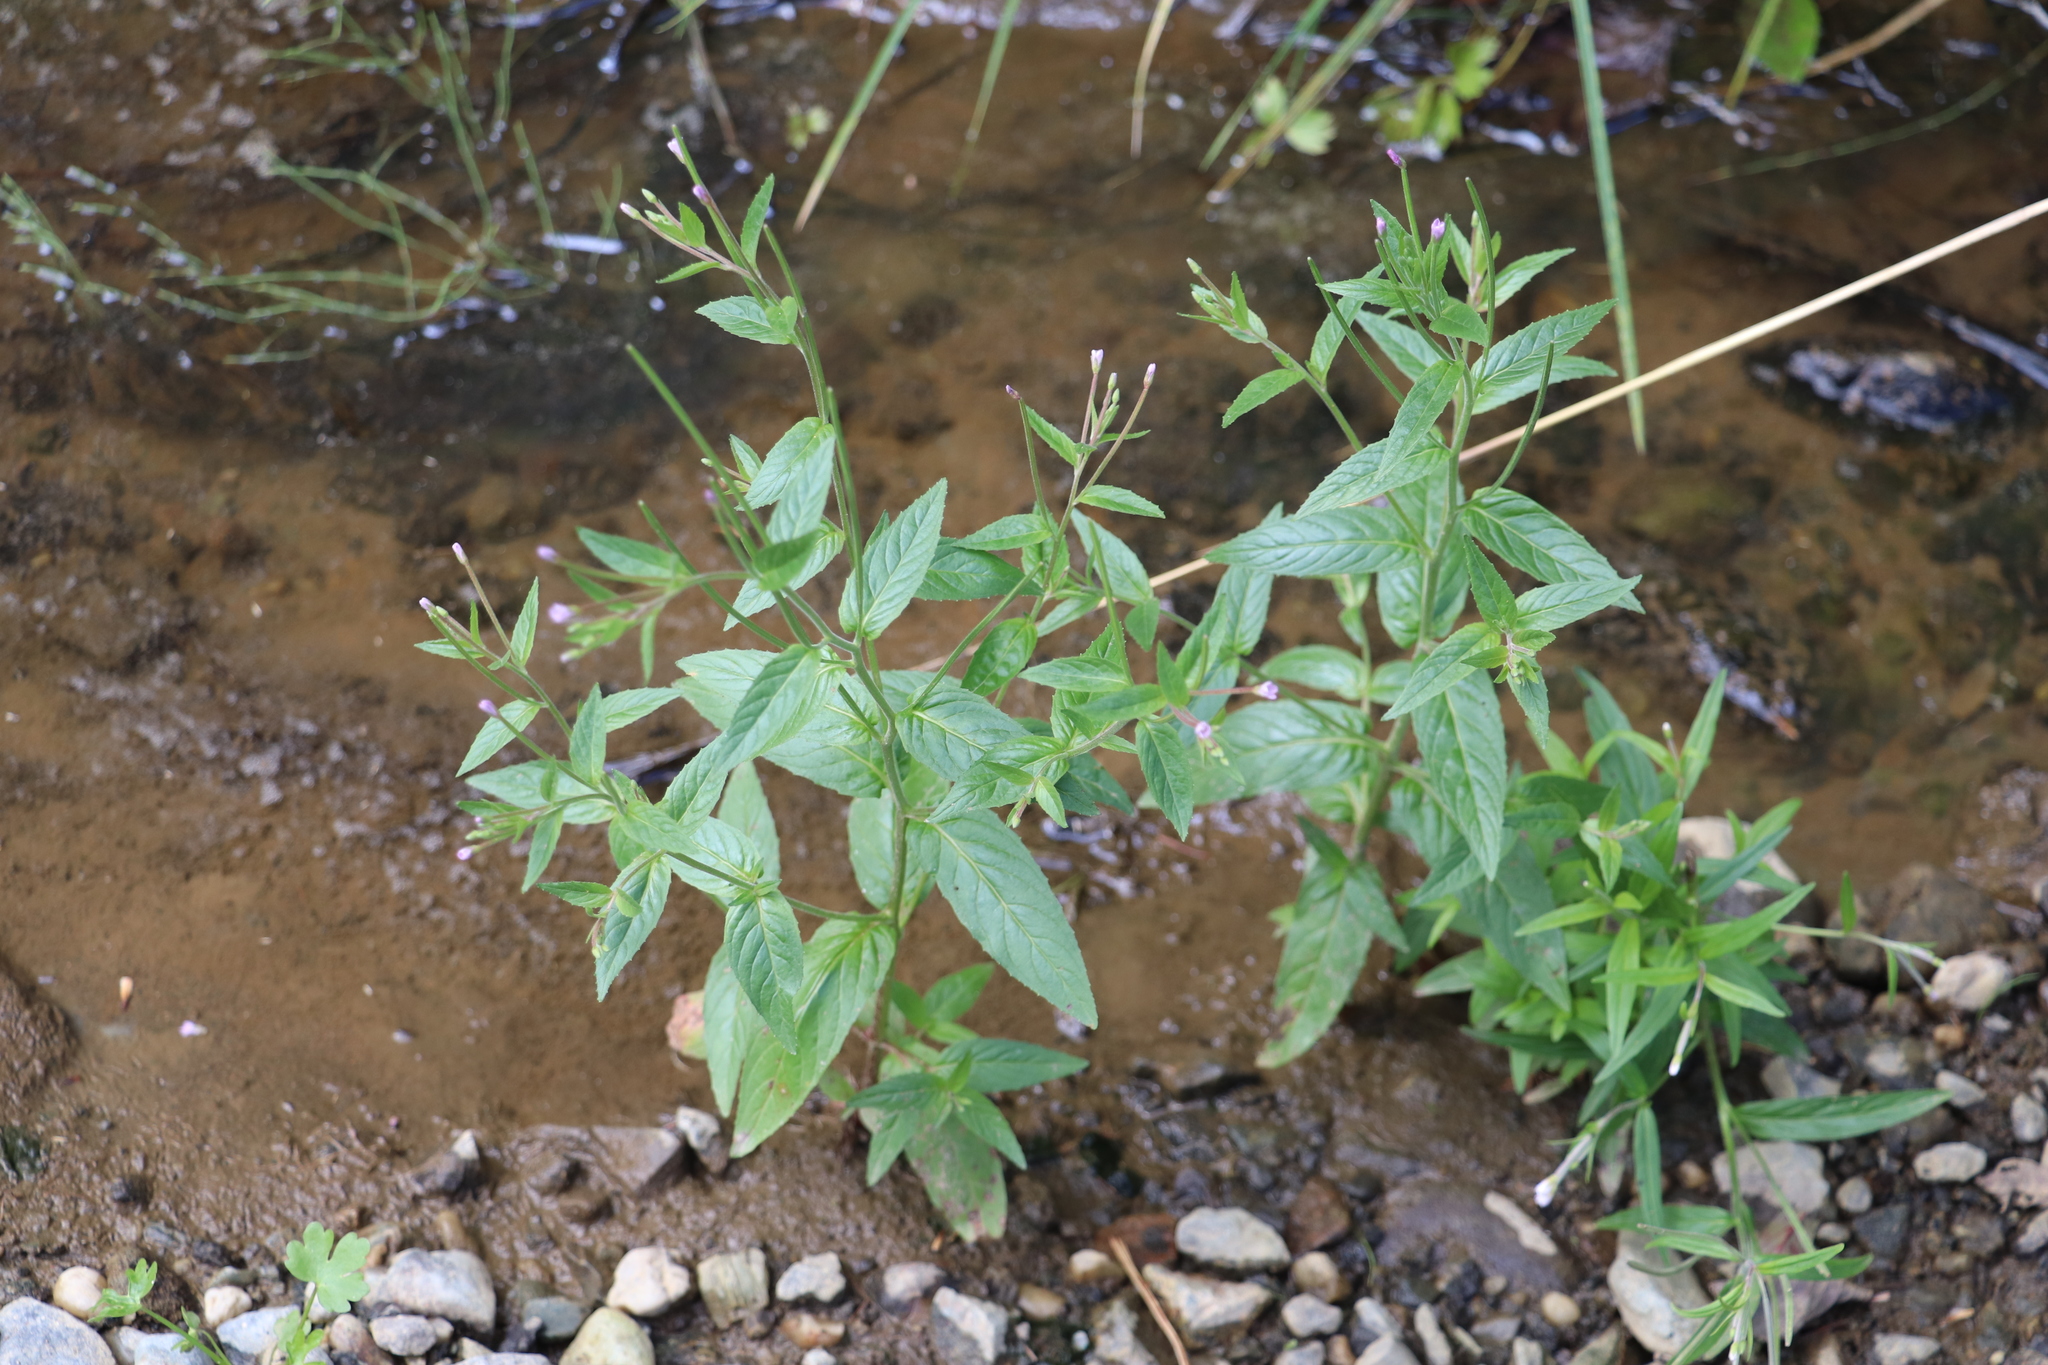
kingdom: Plantae
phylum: Tracheophyta
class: Magnoliopsida
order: Myrtales
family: Onagraceae
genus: Epilobium
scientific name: Epilobium pseudorubescens
